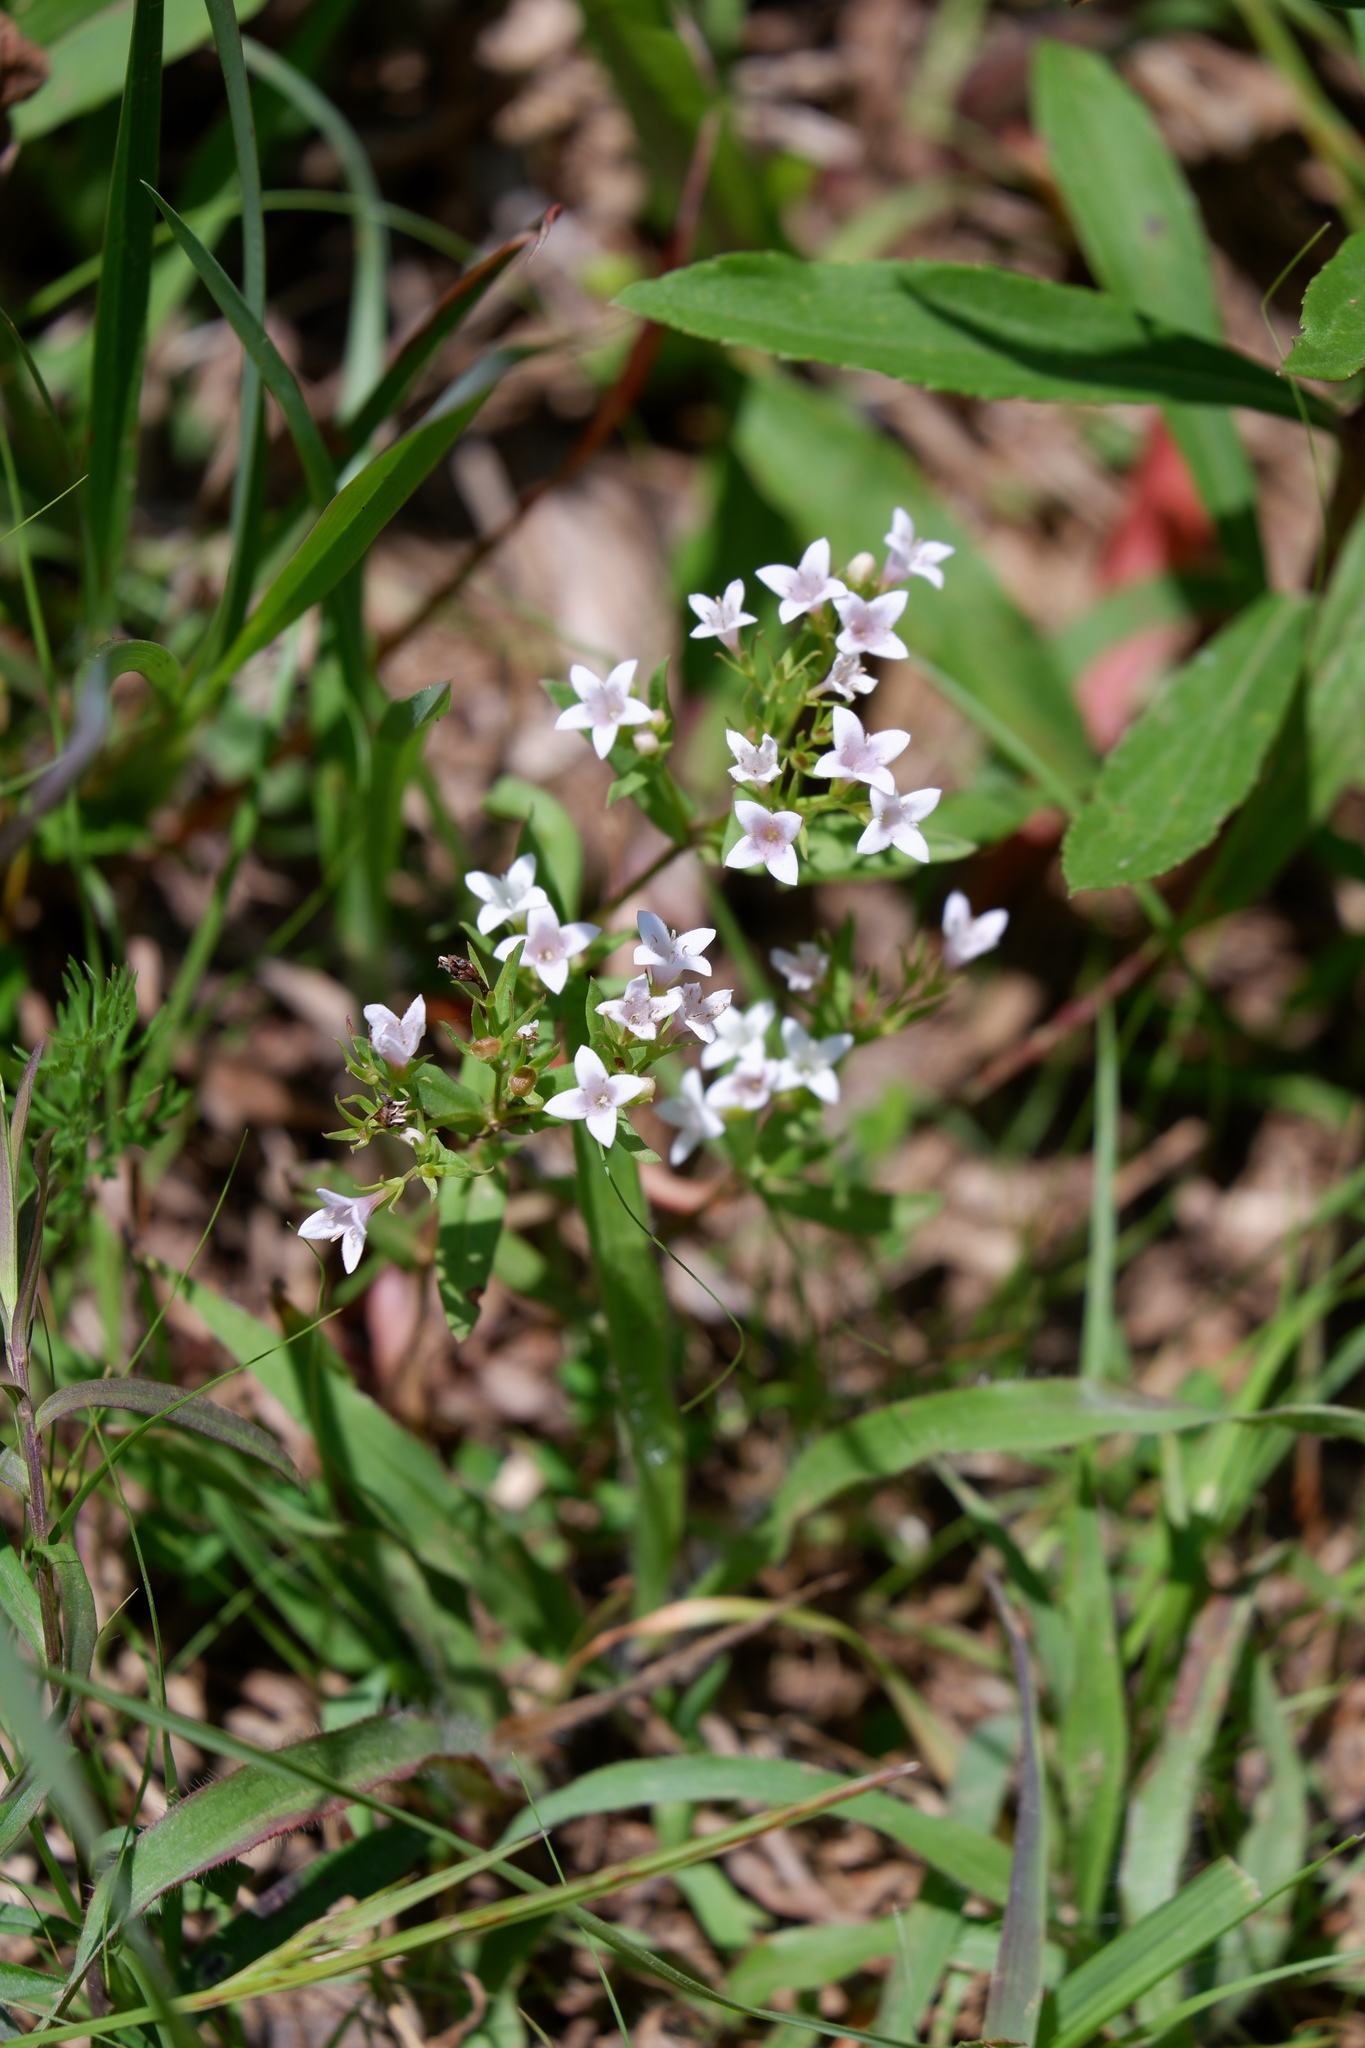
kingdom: Plantae
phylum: Tracheophyta
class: Magnoliopsida
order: Gentianales
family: Rubiaceae
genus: Houstonia
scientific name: Houstonia purpurea
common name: Summer bluet
